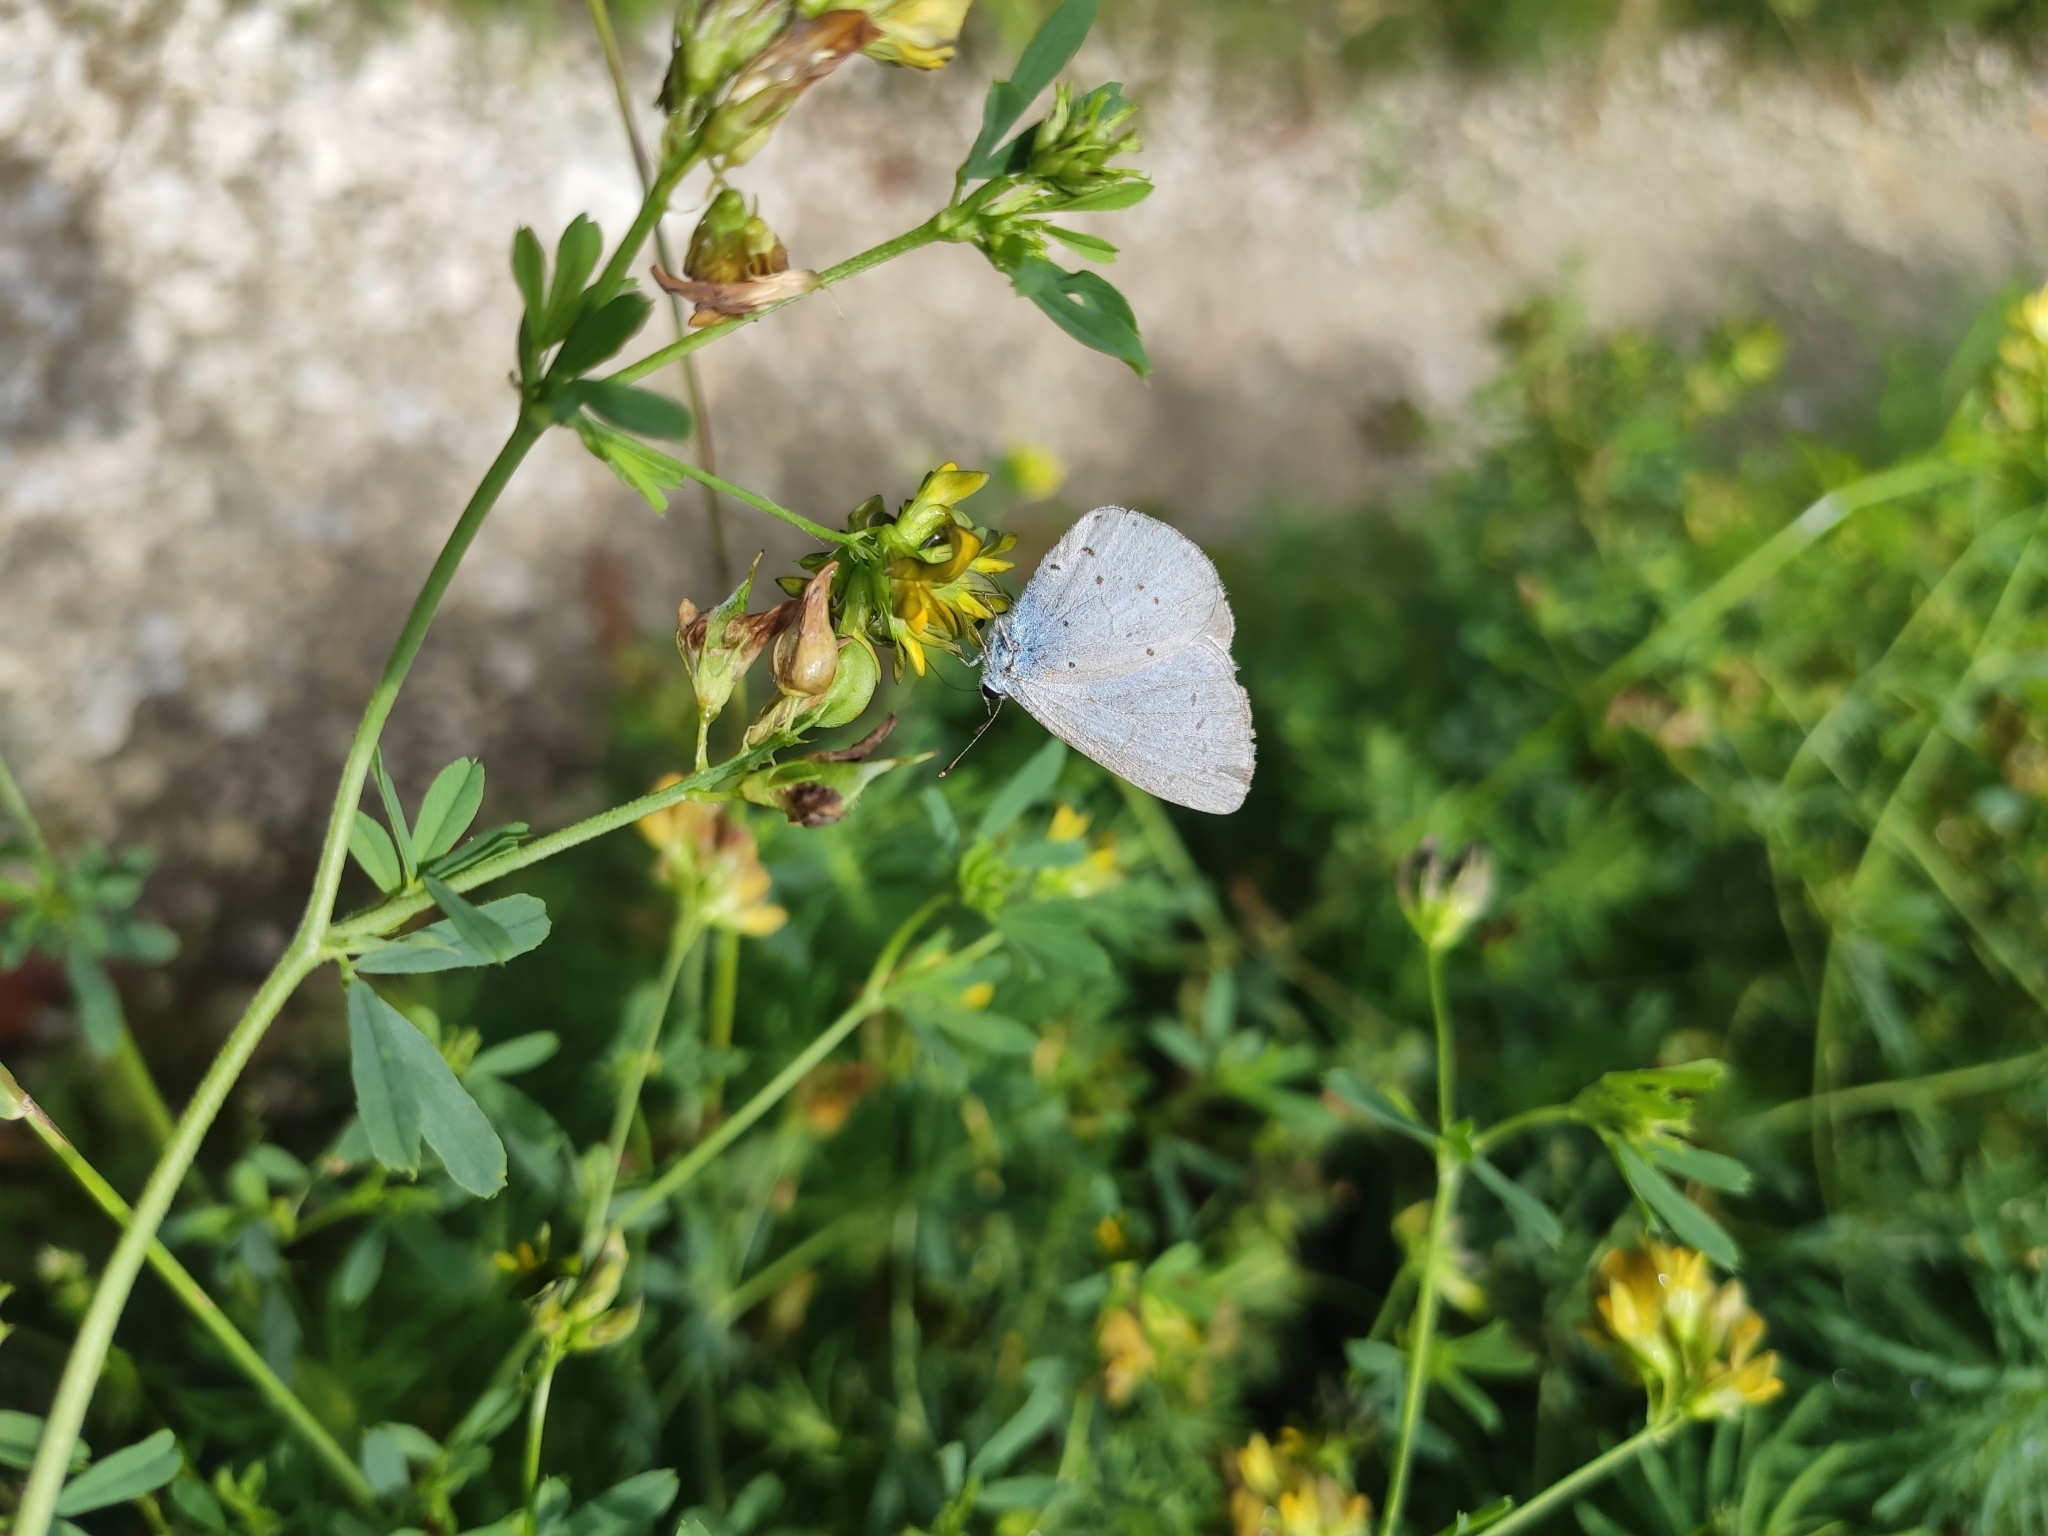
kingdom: Animalia
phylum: Arthropoda
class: Insecta
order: Lepidoptera
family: Lycaenidae
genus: Celastrina
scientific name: Celastrina argiolus
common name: Holly blue
